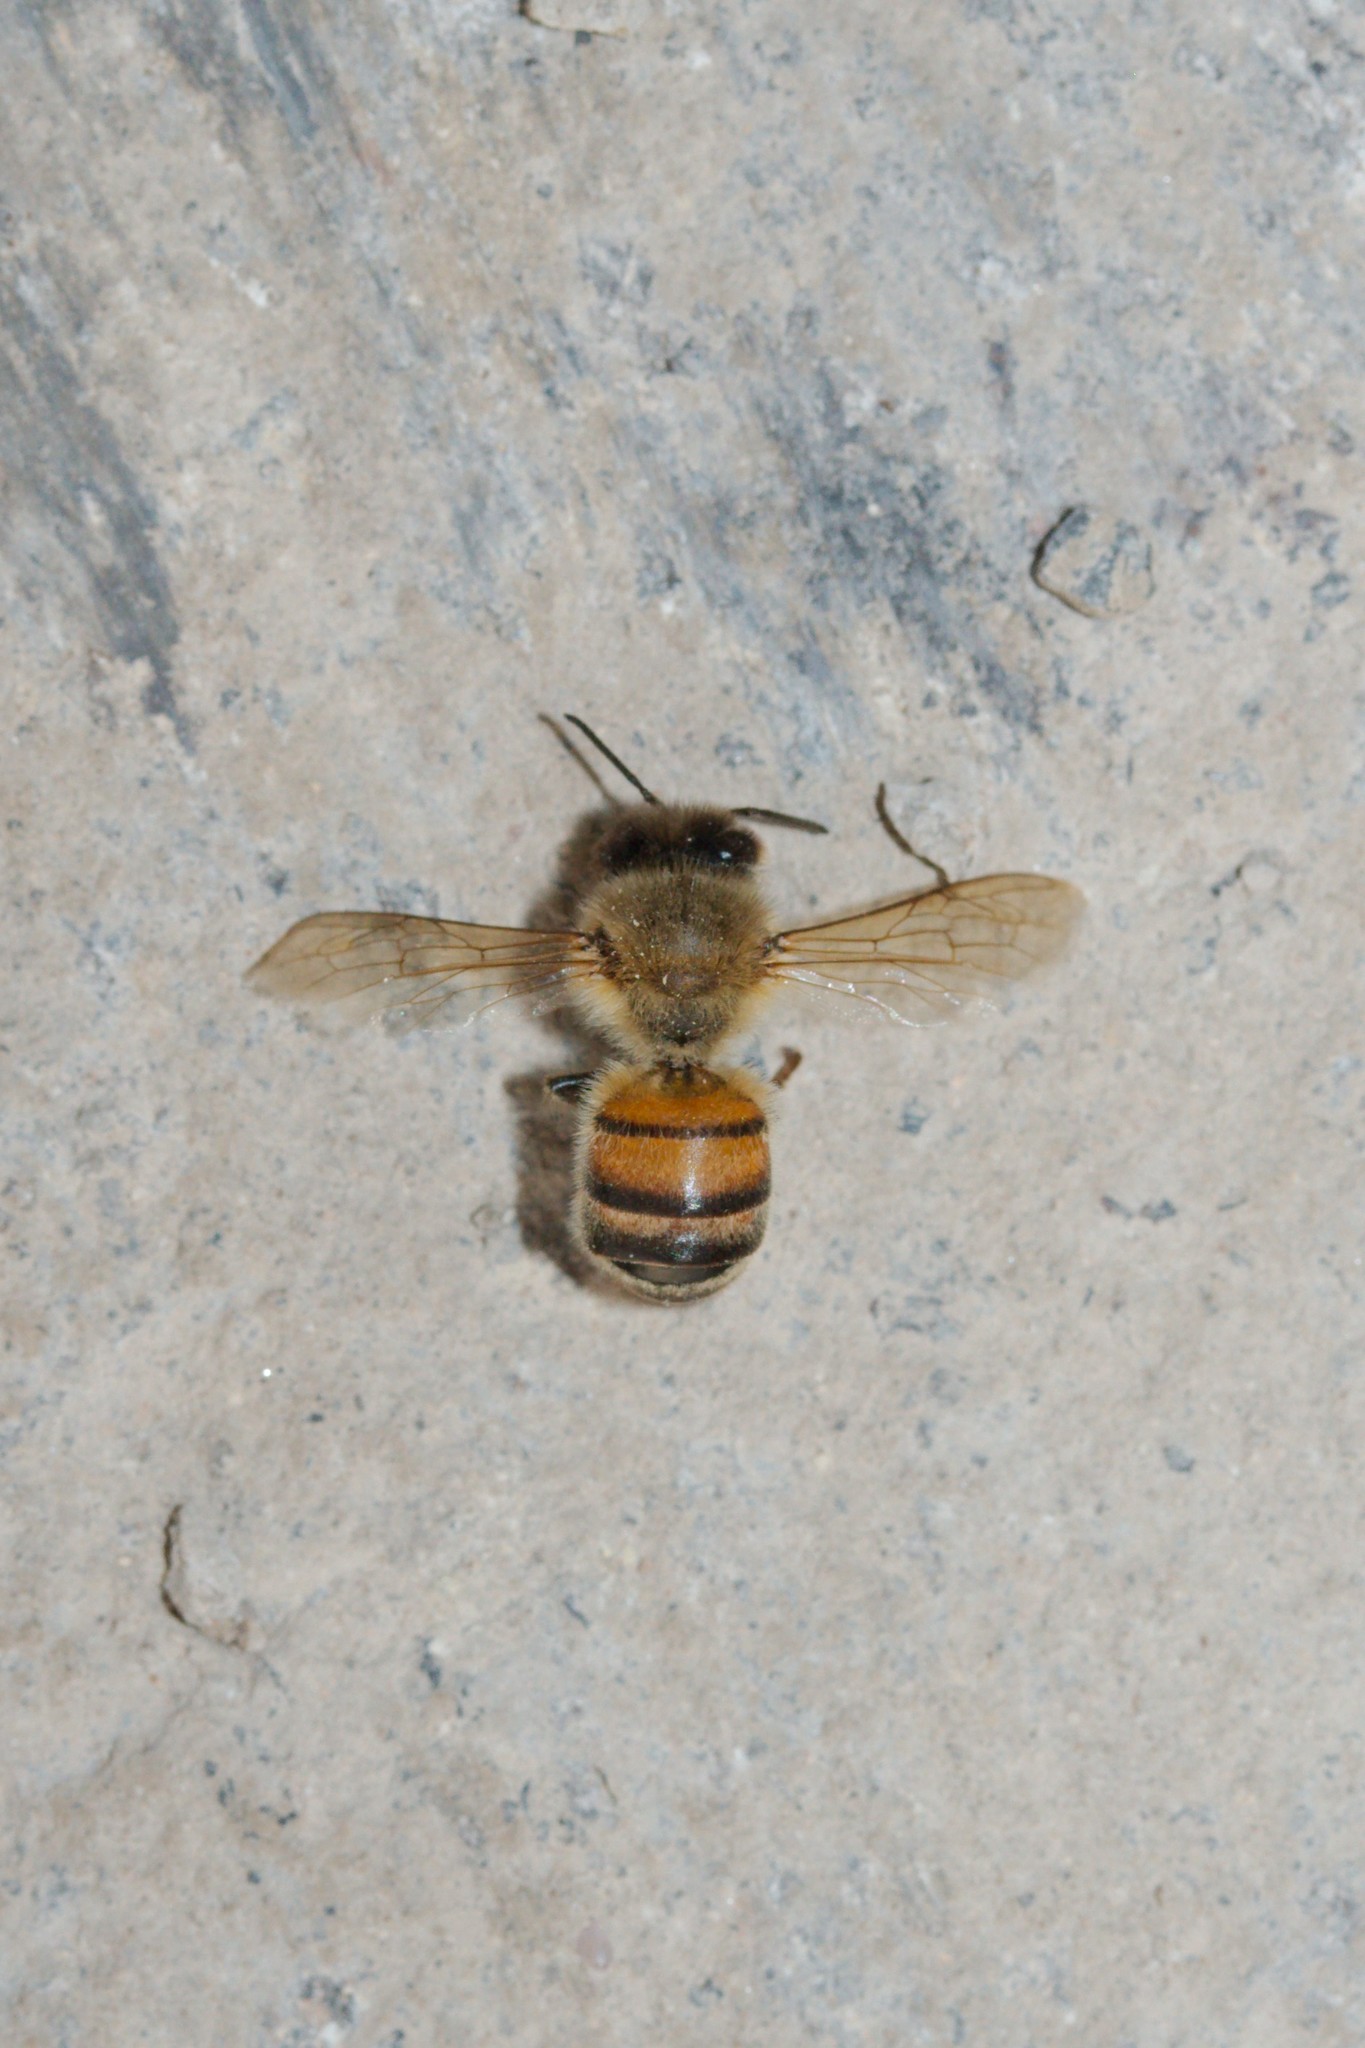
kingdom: Animalia
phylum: Arthropoda
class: Insecta
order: Hymenoptera
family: Apidae
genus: Apis
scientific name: Apis mellifera
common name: Honey bee
